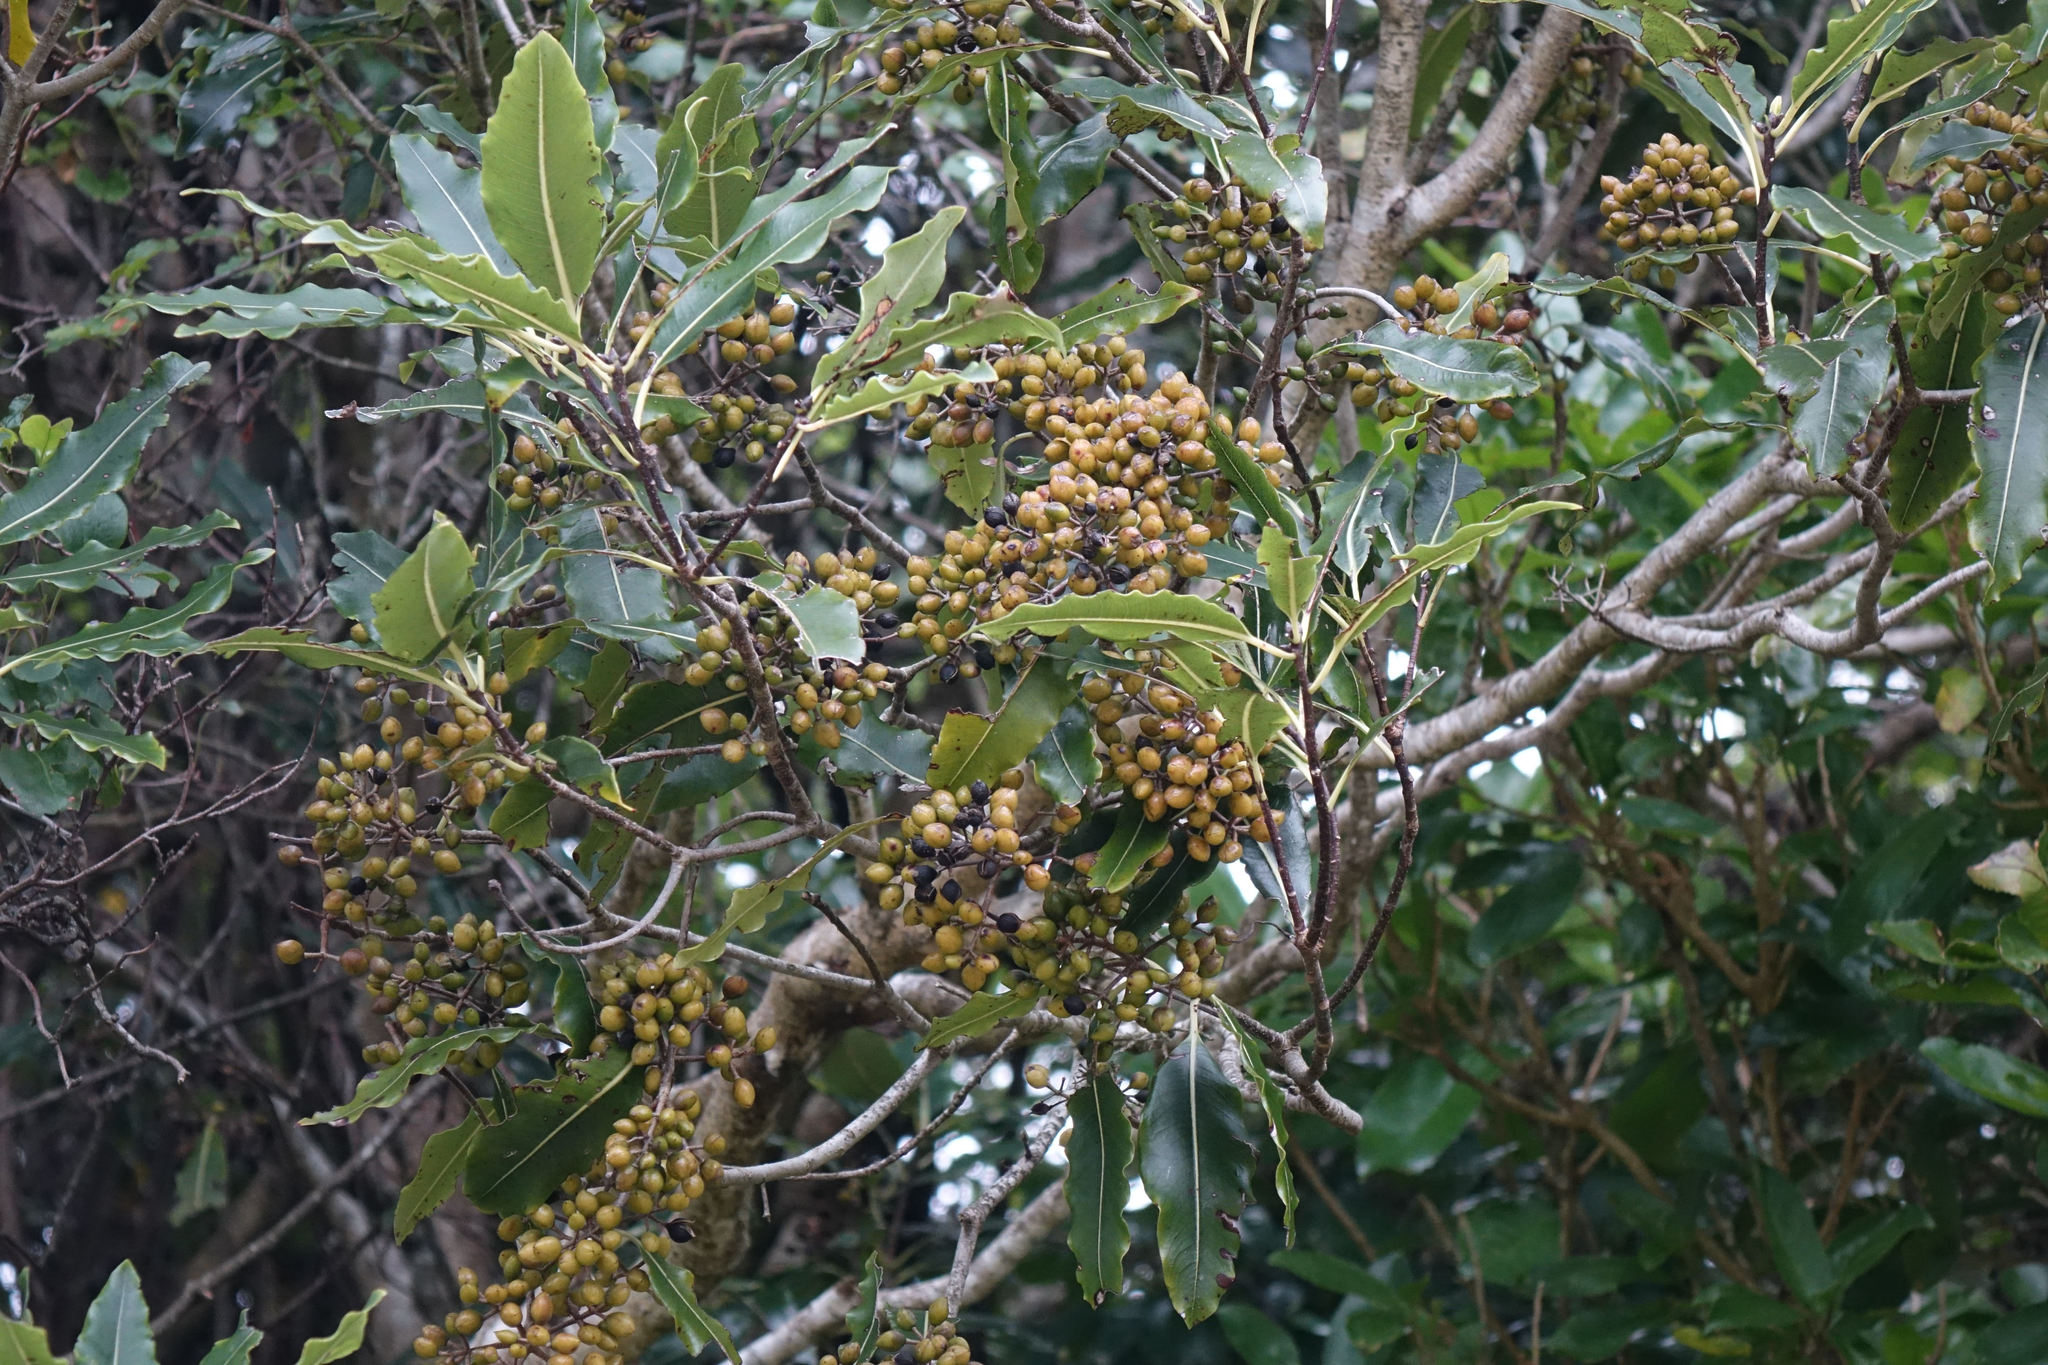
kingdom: Plantae
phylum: Tracheophyta
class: Magnoliopsida
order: Apiales
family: Pittosporaceae
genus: Pittosporum
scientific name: Pittosporum eugenioides
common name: Lemonwood
